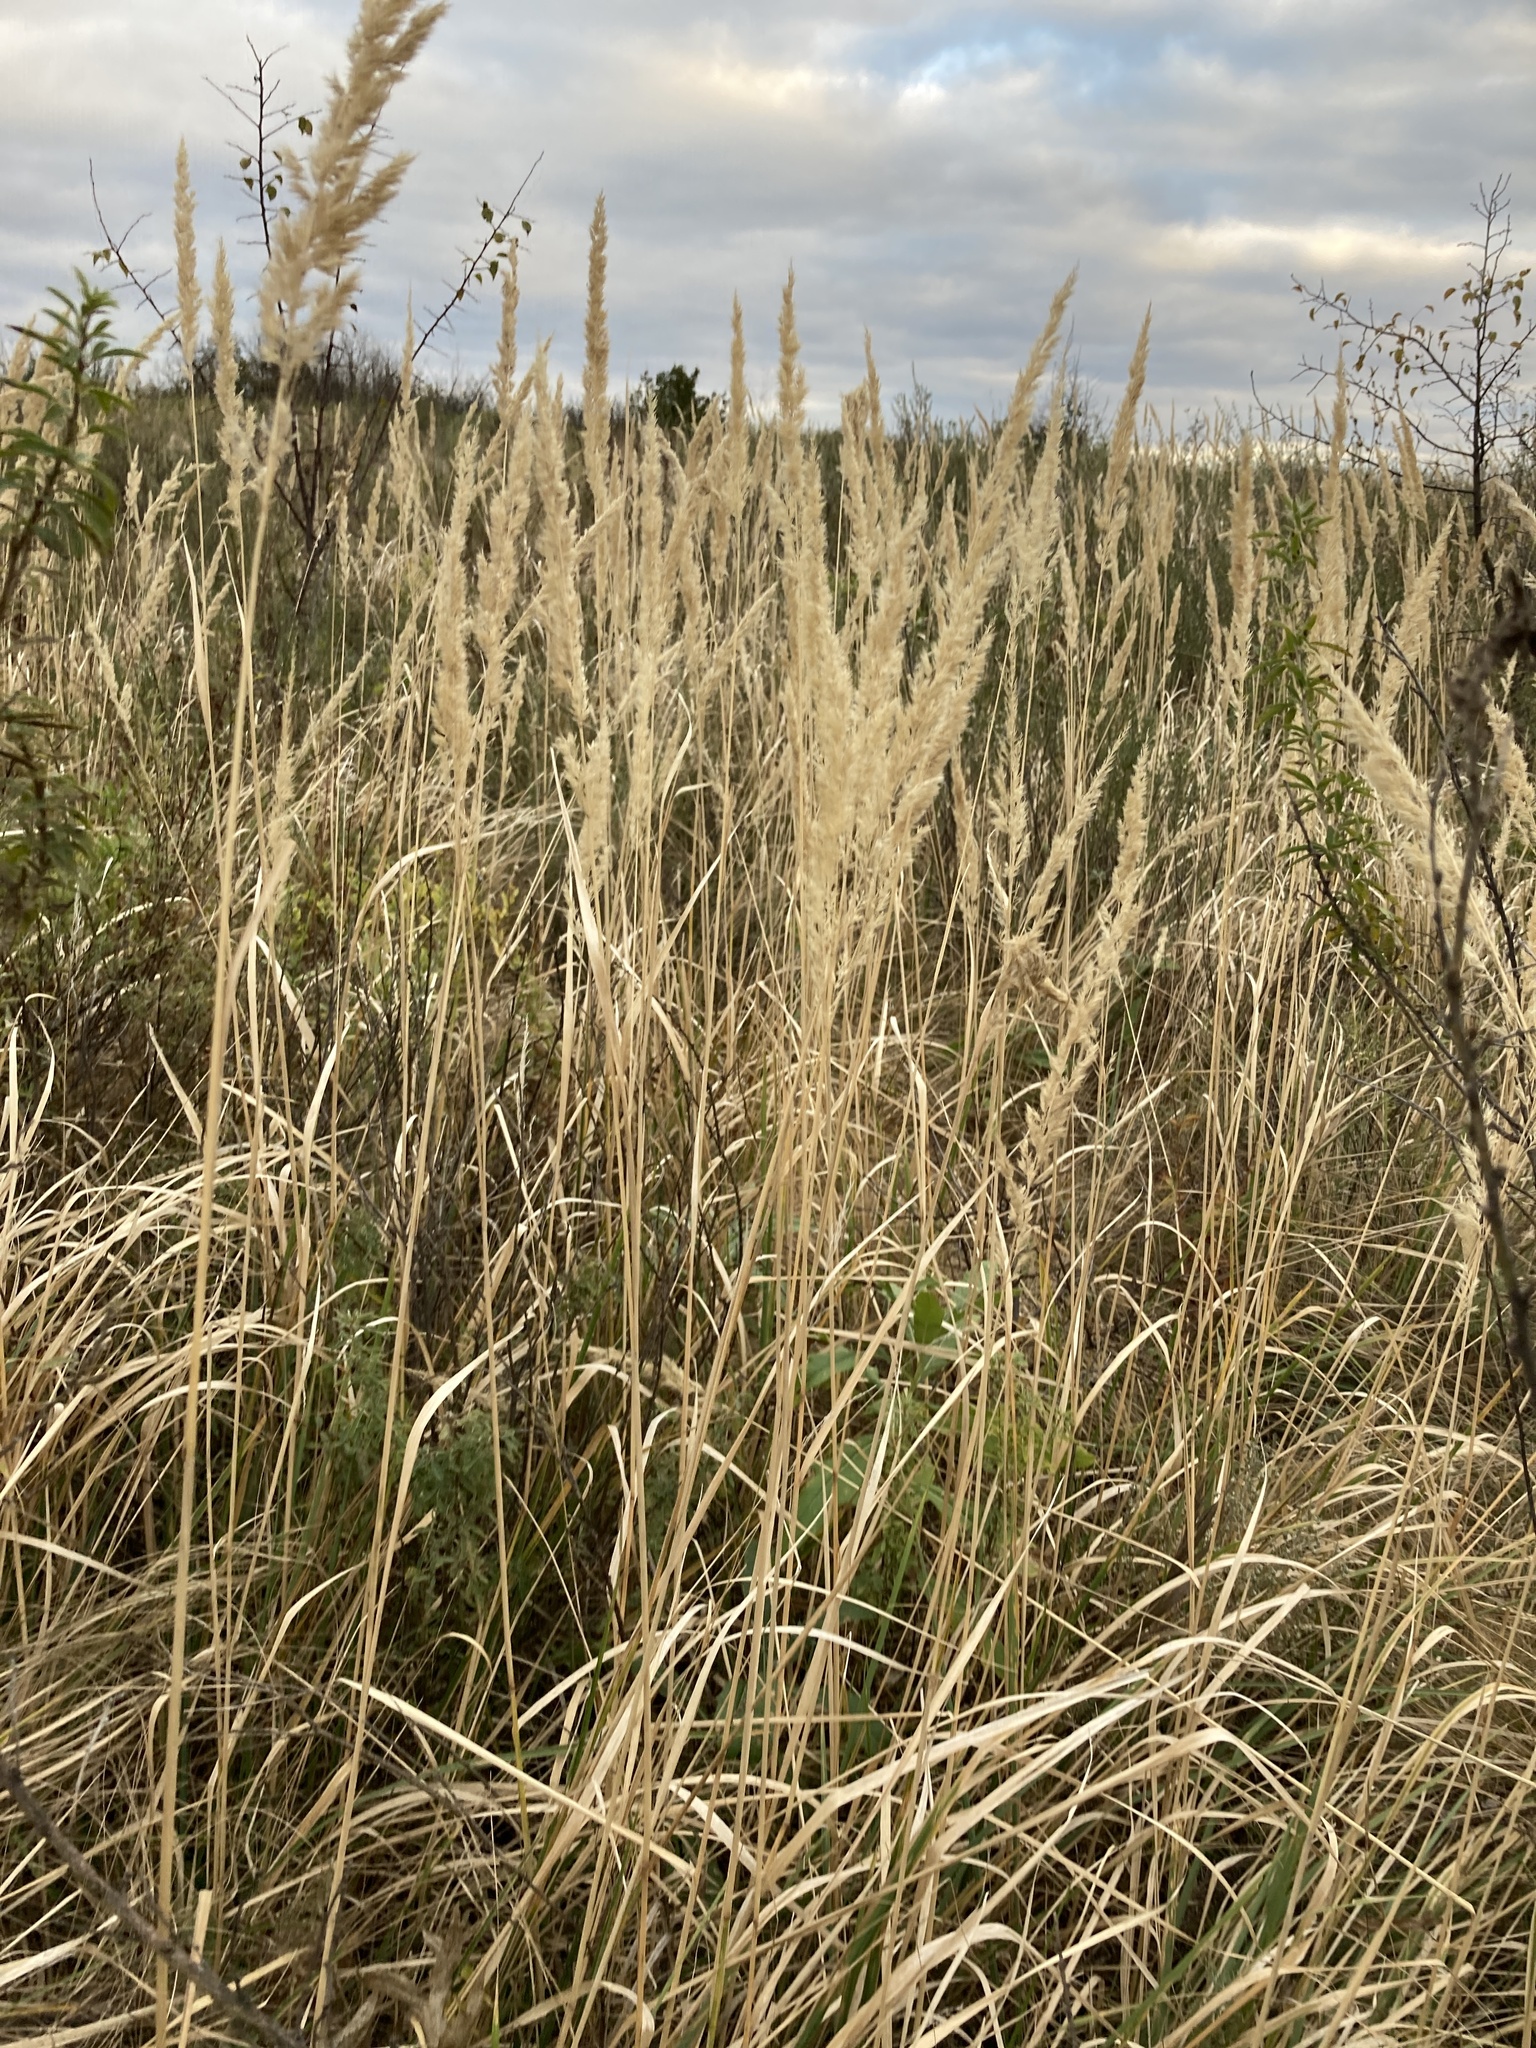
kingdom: Plantae
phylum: Tracheophyta
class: Liliopsida
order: Poales
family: Poaceae
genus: Calamagrostis
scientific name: Calamagrostis epigejos
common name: Wood small-reed
